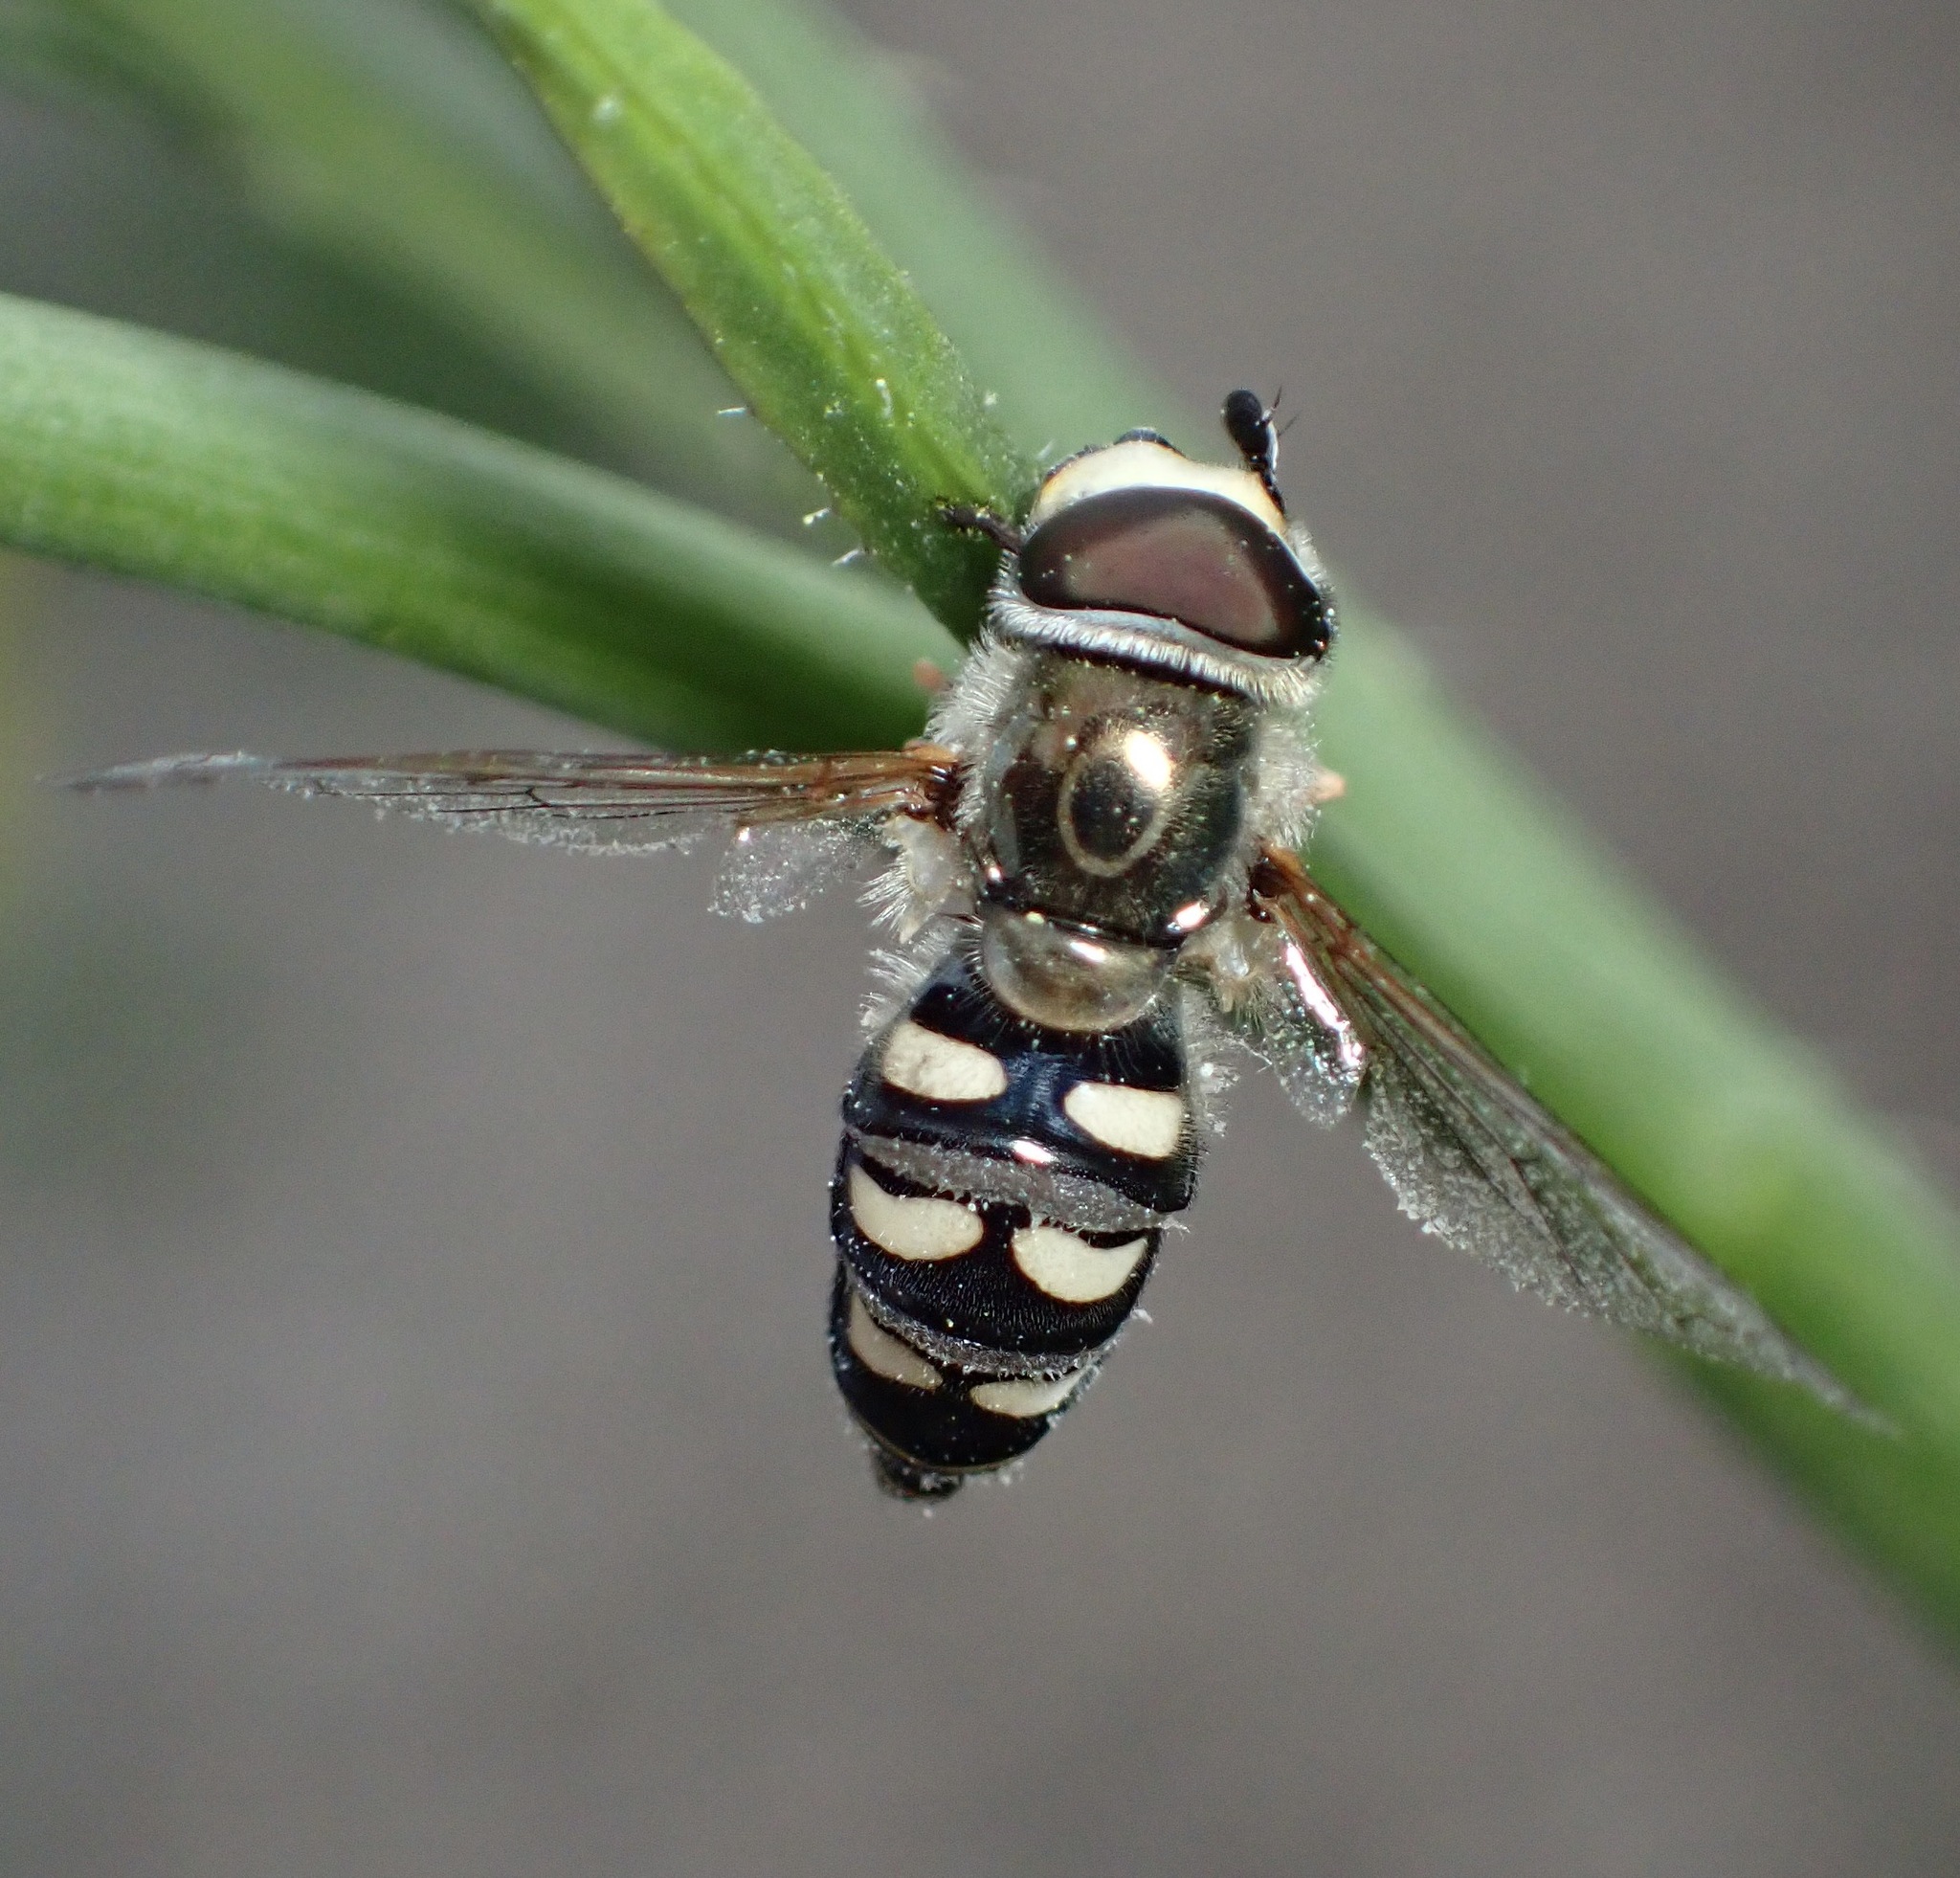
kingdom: Animalia
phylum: Arthropoda
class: Insecta
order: Diptera
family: Syrphidae
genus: Eupeodes
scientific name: Eupeodes volucris
